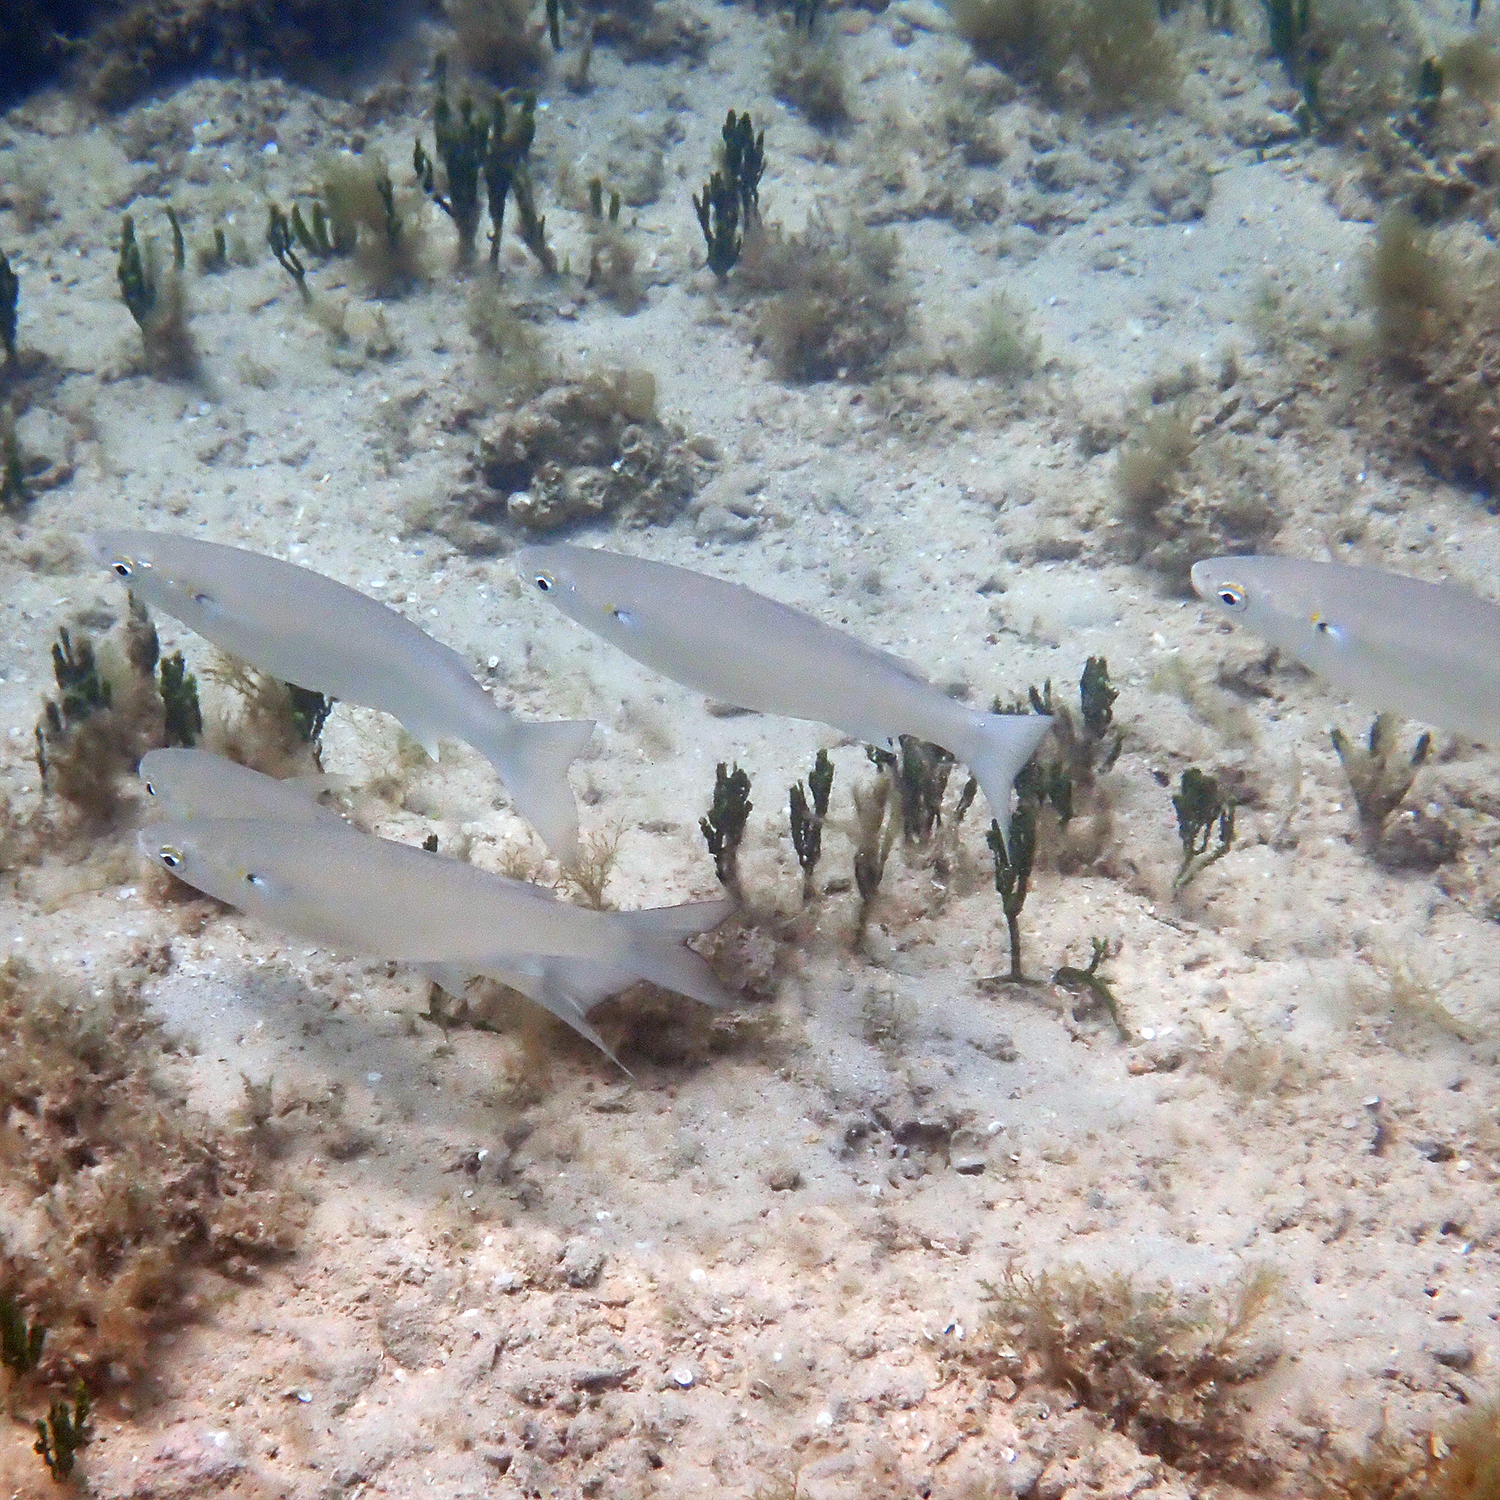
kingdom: Animalia
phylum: Chordata
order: Mugiliformes
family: Mugilidae
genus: Myxus
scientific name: Myxus elongatus
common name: Sand grey mullet
